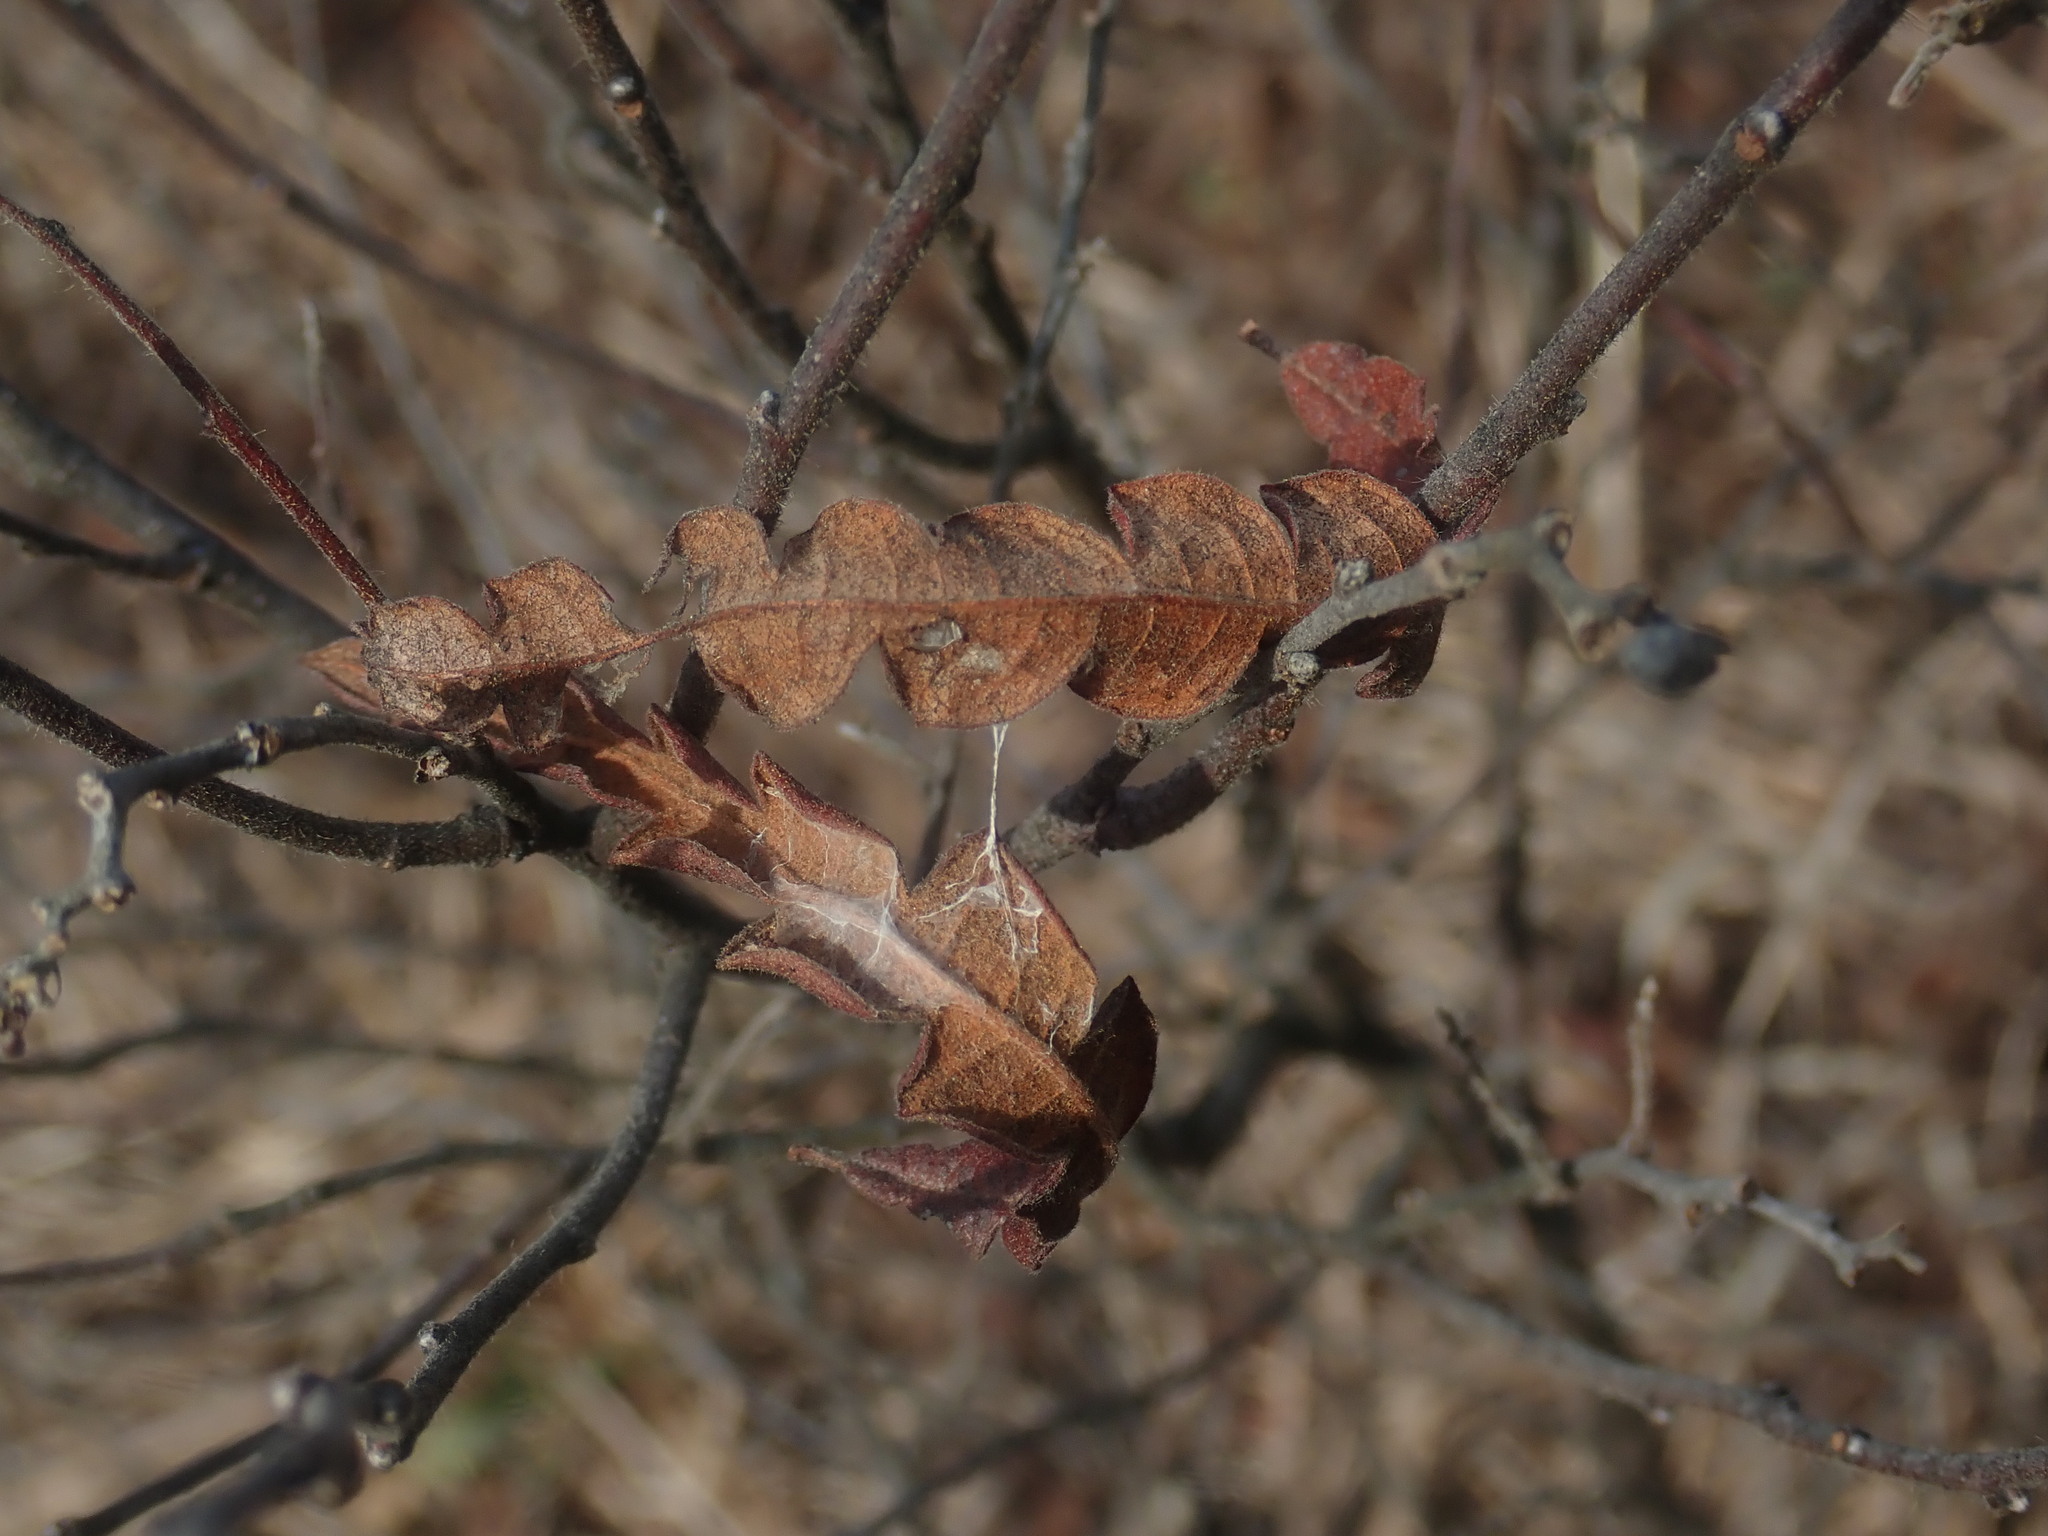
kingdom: Plantae
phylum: Tracheophyta
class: Magnoliopsida
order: Fagales
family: Myricaceae
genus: Comptonia
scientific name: Comptonia peregrina
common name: Sweet-fern
